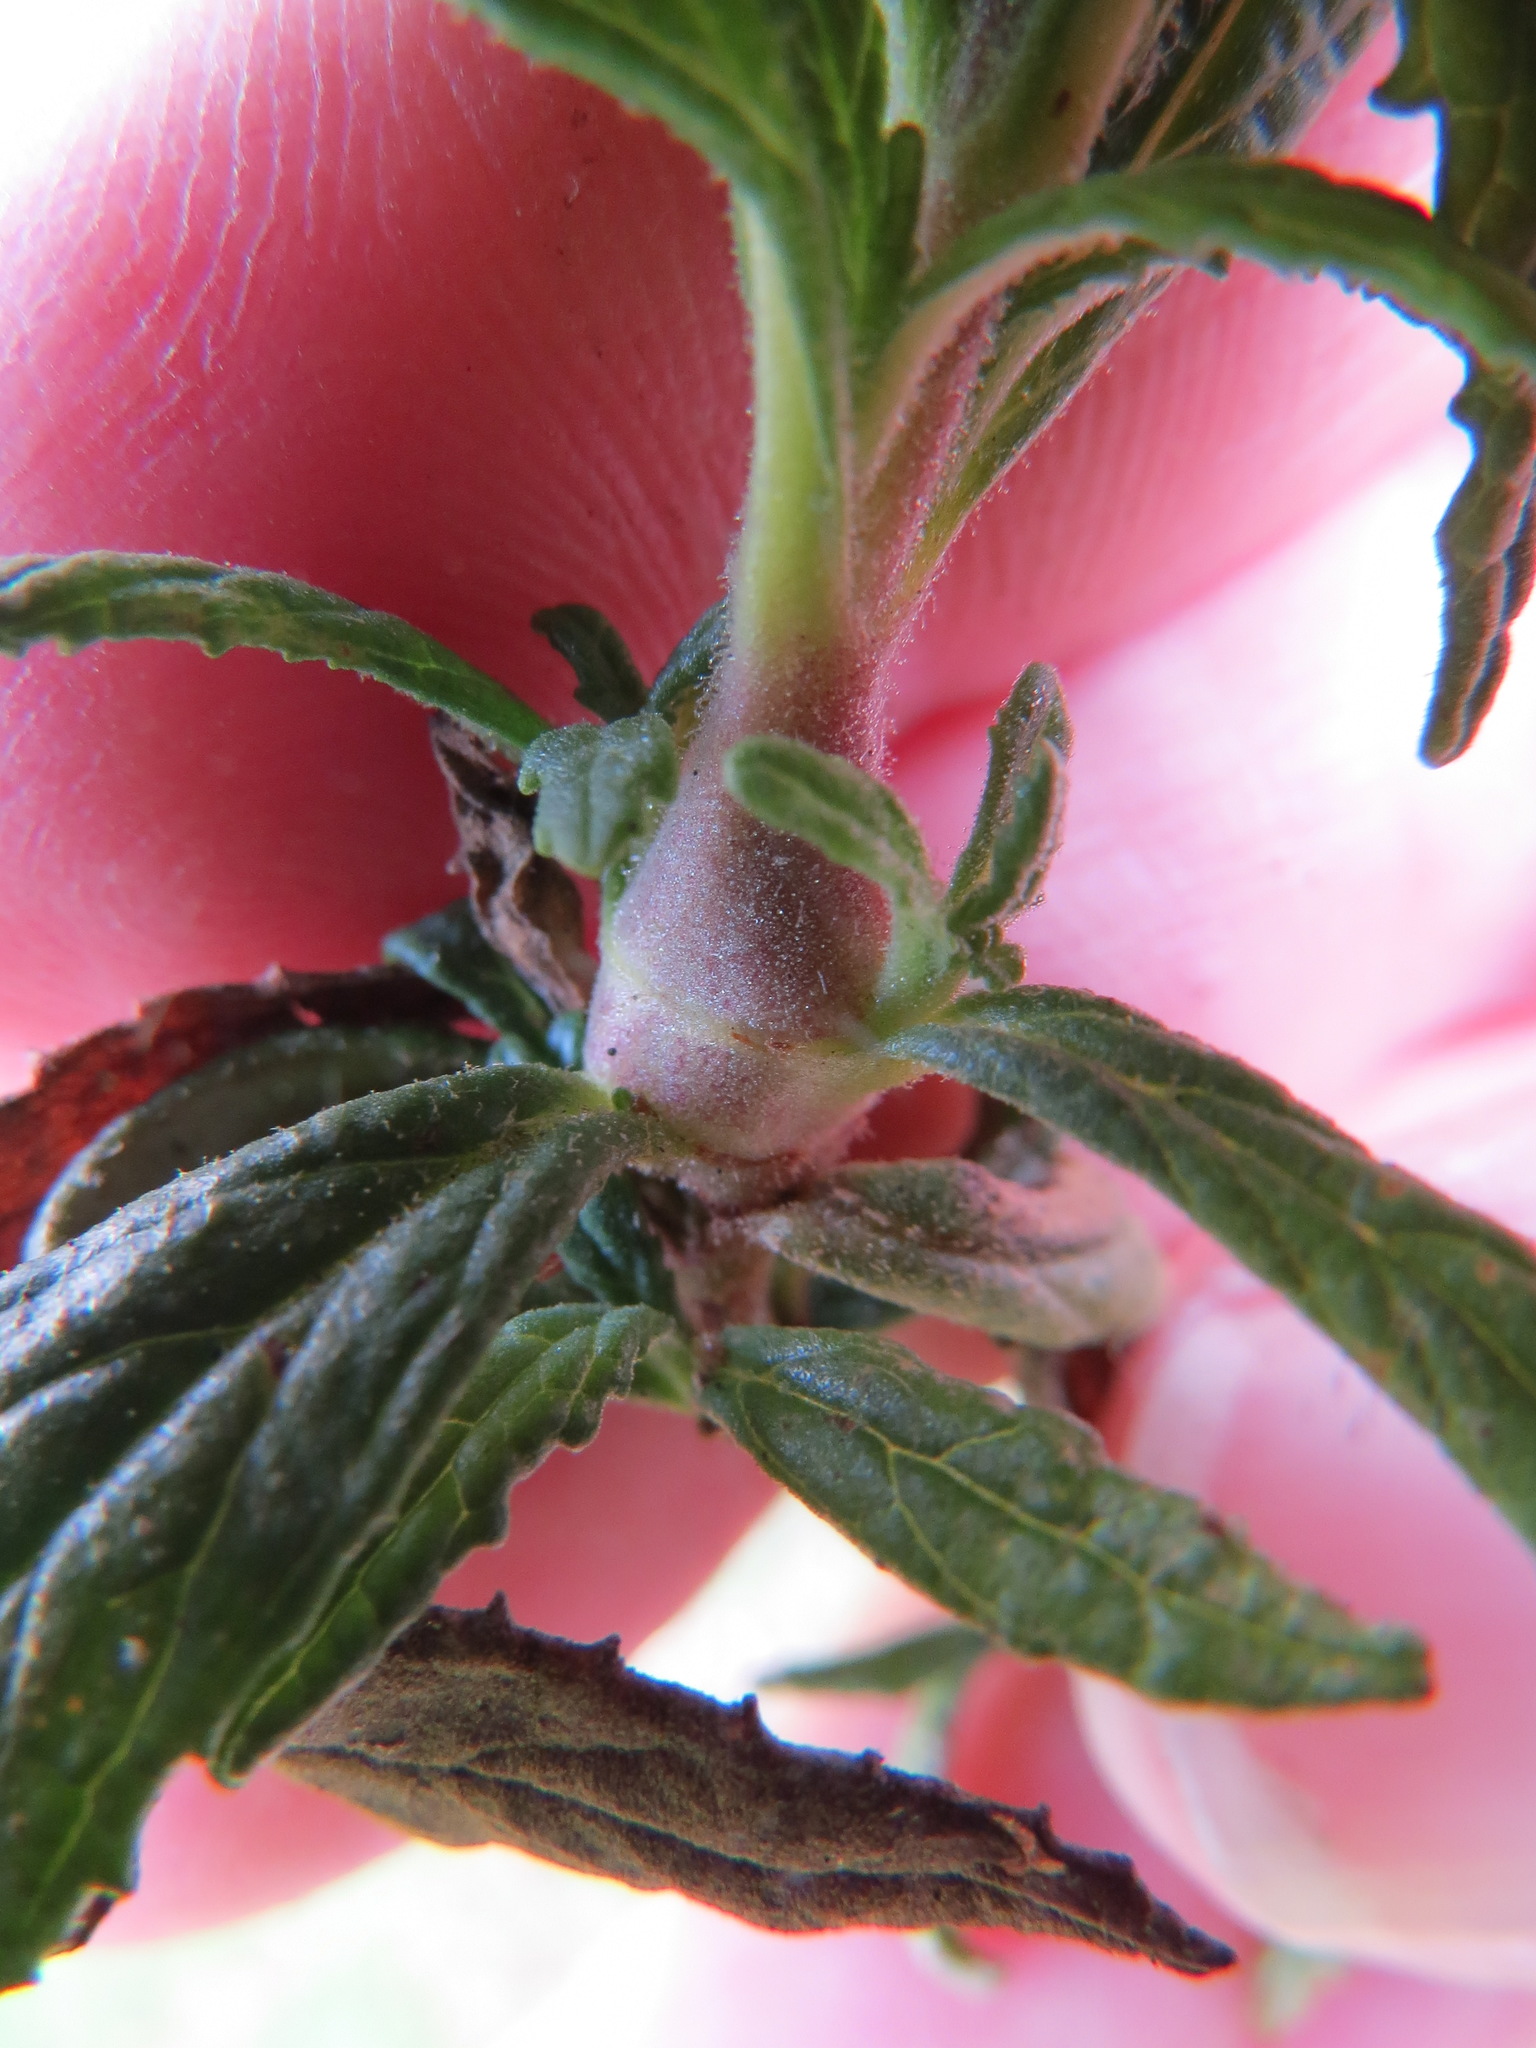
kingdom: Animalia
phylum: Arthropoda
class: Insecta
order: Diptera
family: Cecidomyiidae
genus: Neolasioptera
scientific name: Neolasioptera mimuli
